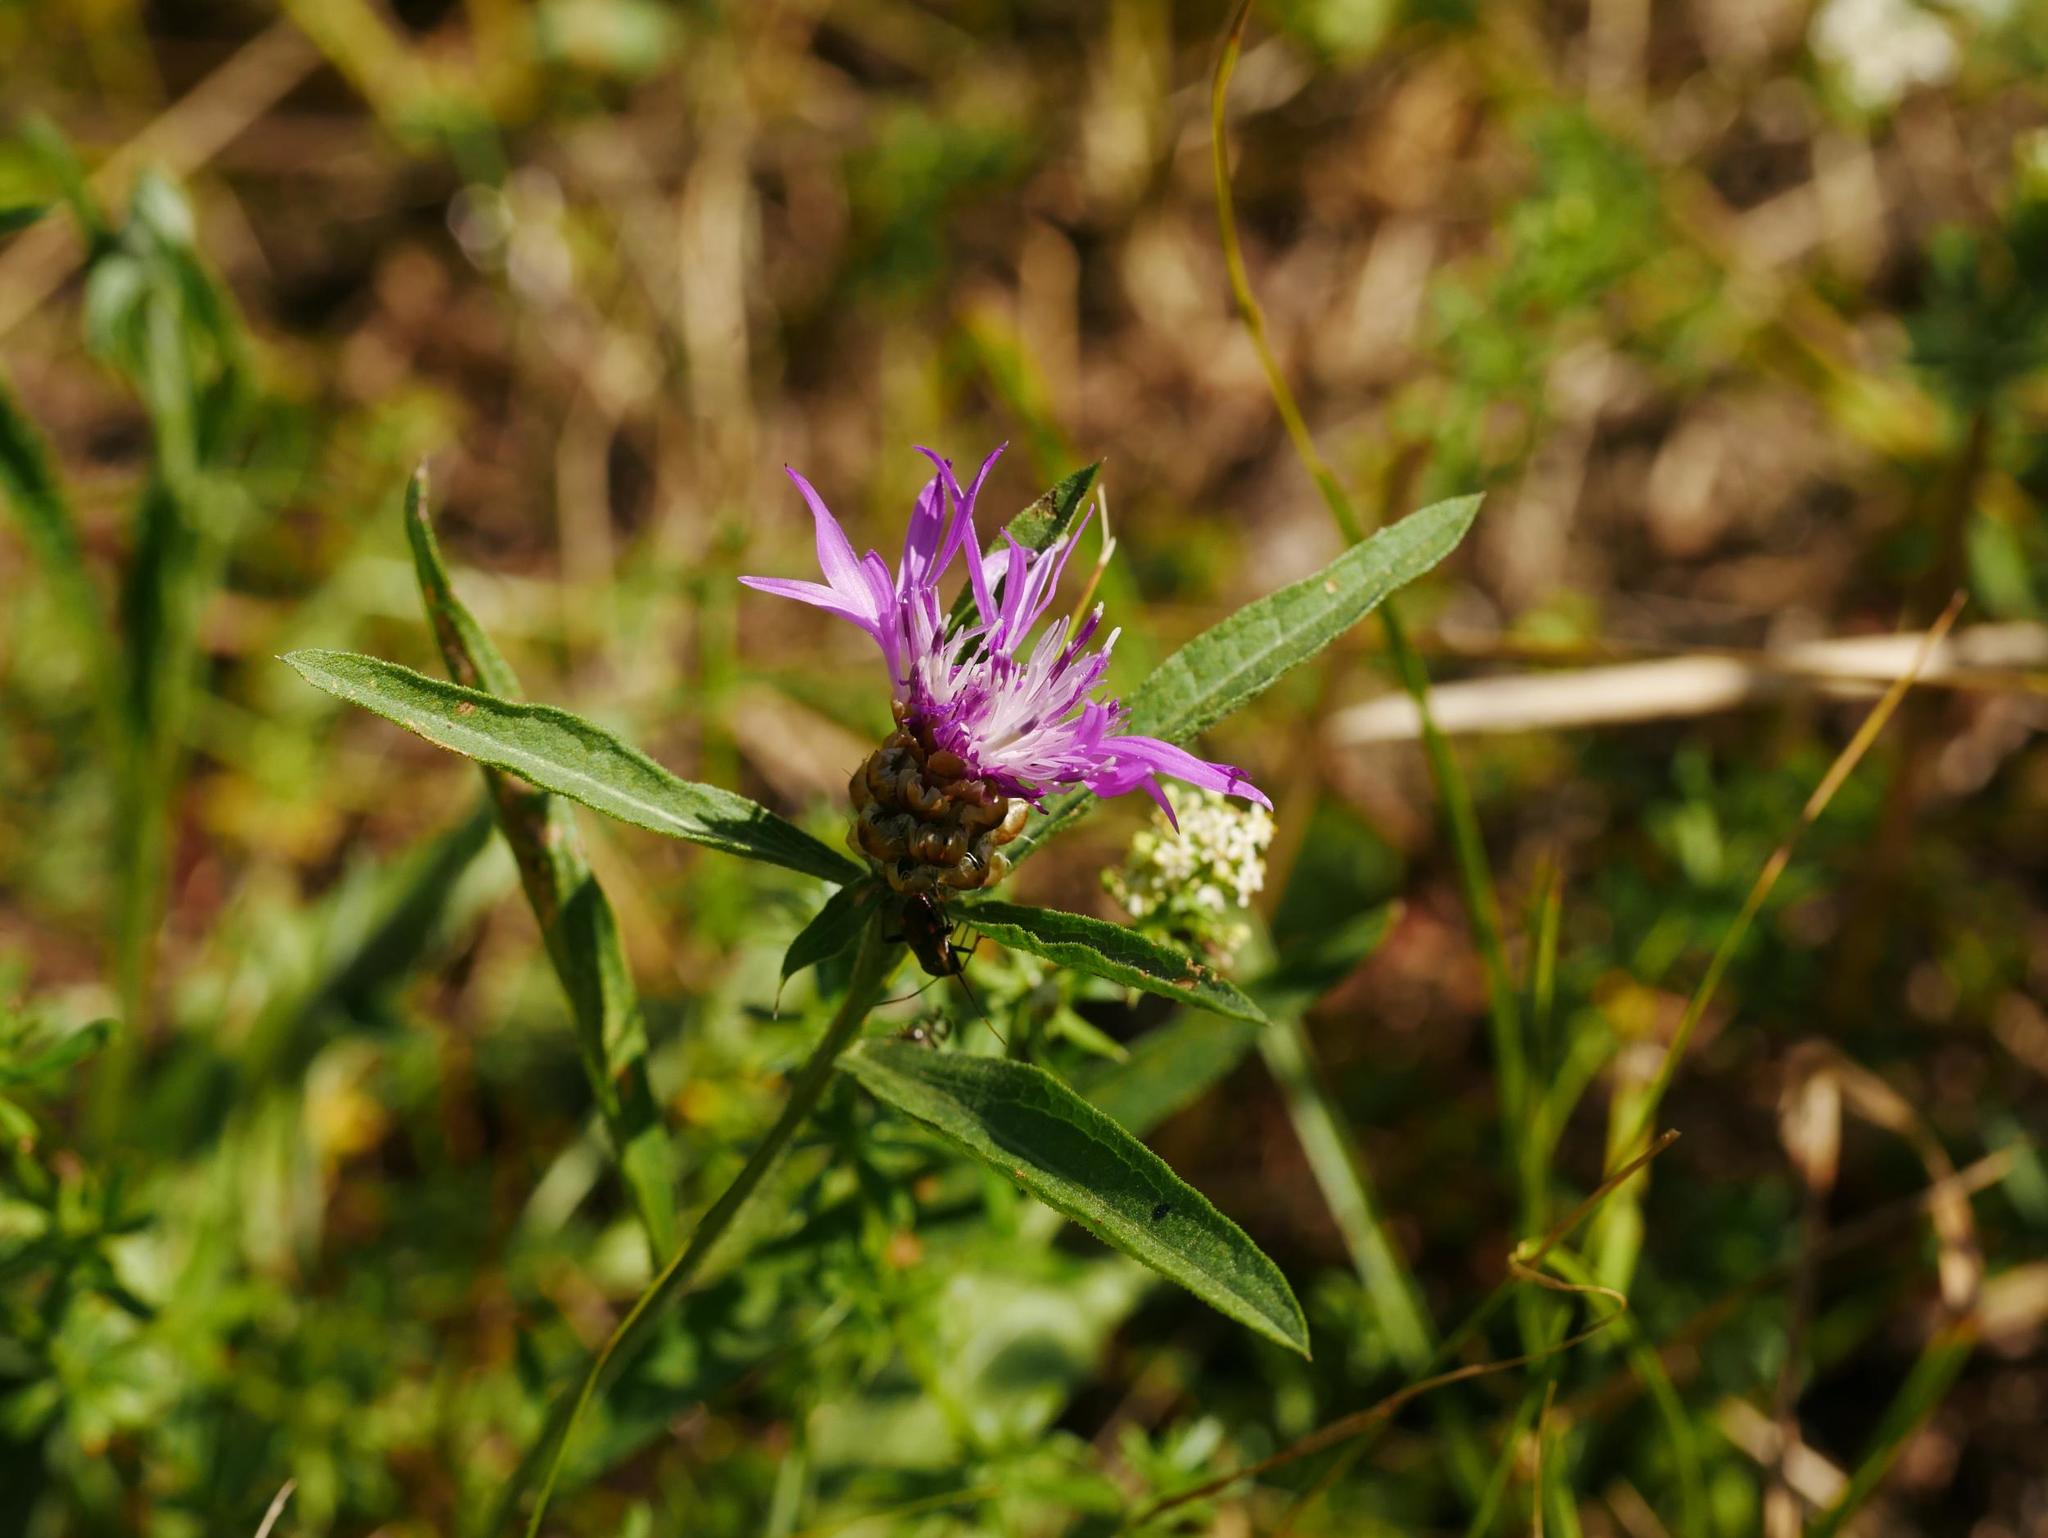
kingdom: Plantae
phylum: Tracheophyta
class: Magnoliopsida
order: Asterales
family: Asteraceae
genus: Centaurea
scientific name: Centaurea jacea
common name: Brown knapweed
